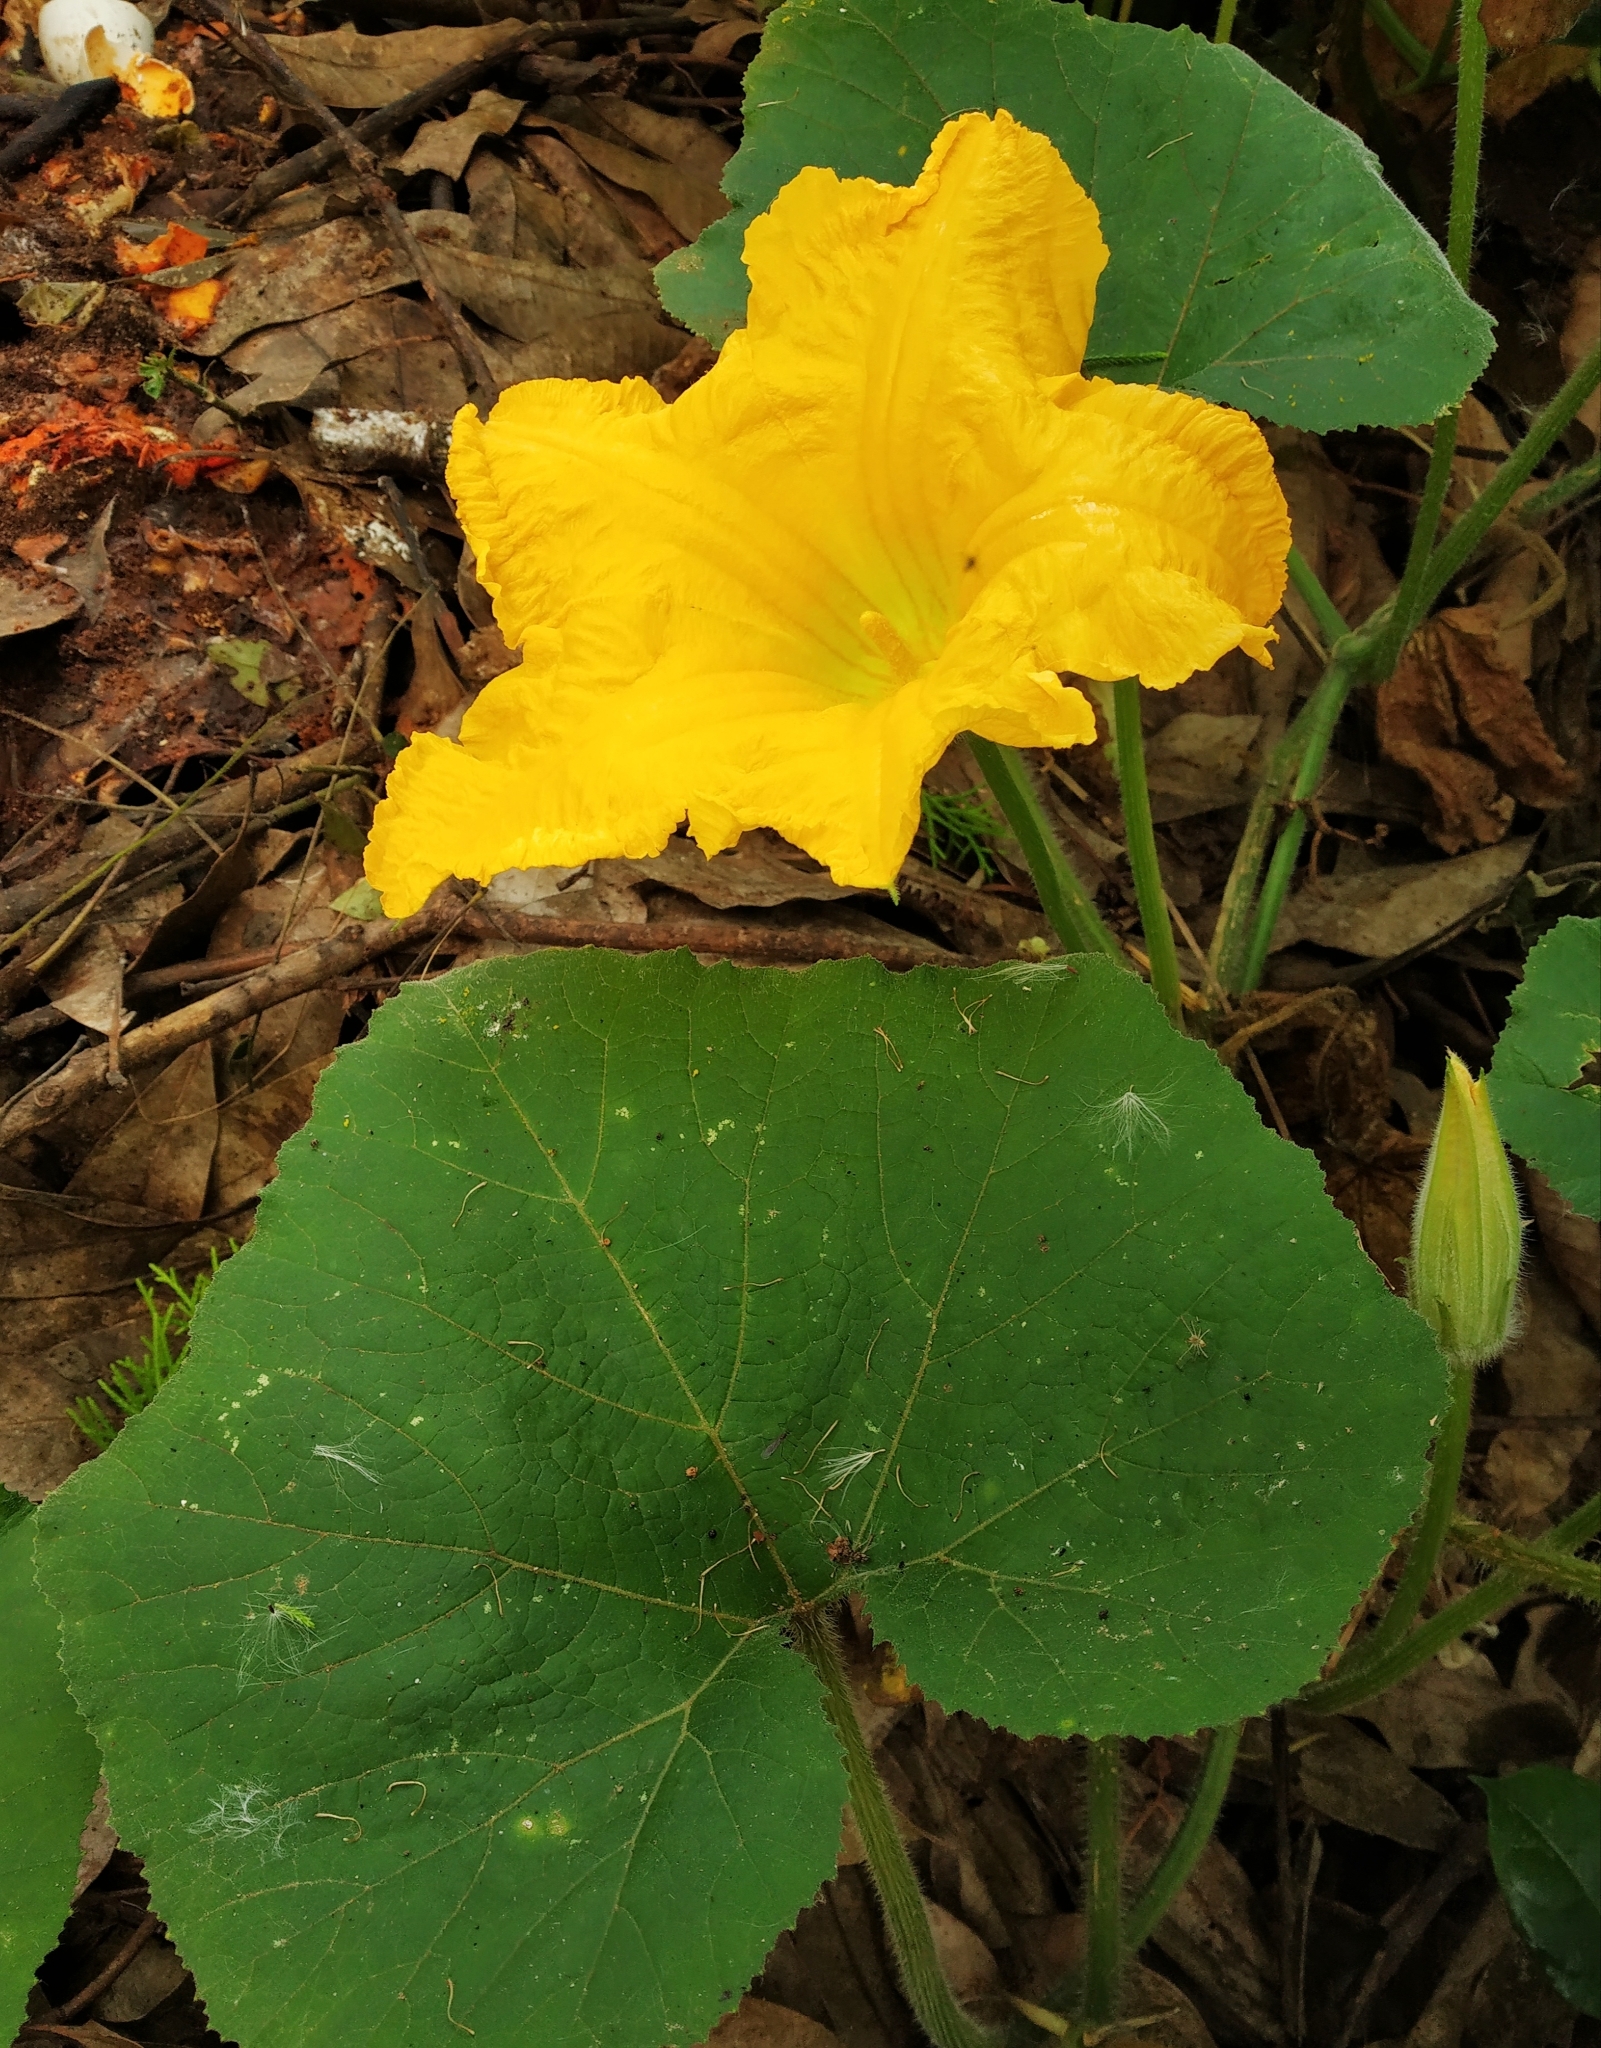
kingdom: Plantae
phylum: Tracheophyta
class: Magnoliopsida
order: Cucurbitales
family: Cucurbitaceae
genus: Cucurbita
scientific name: Cucurbita moschata
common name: Squash / pumpkin
